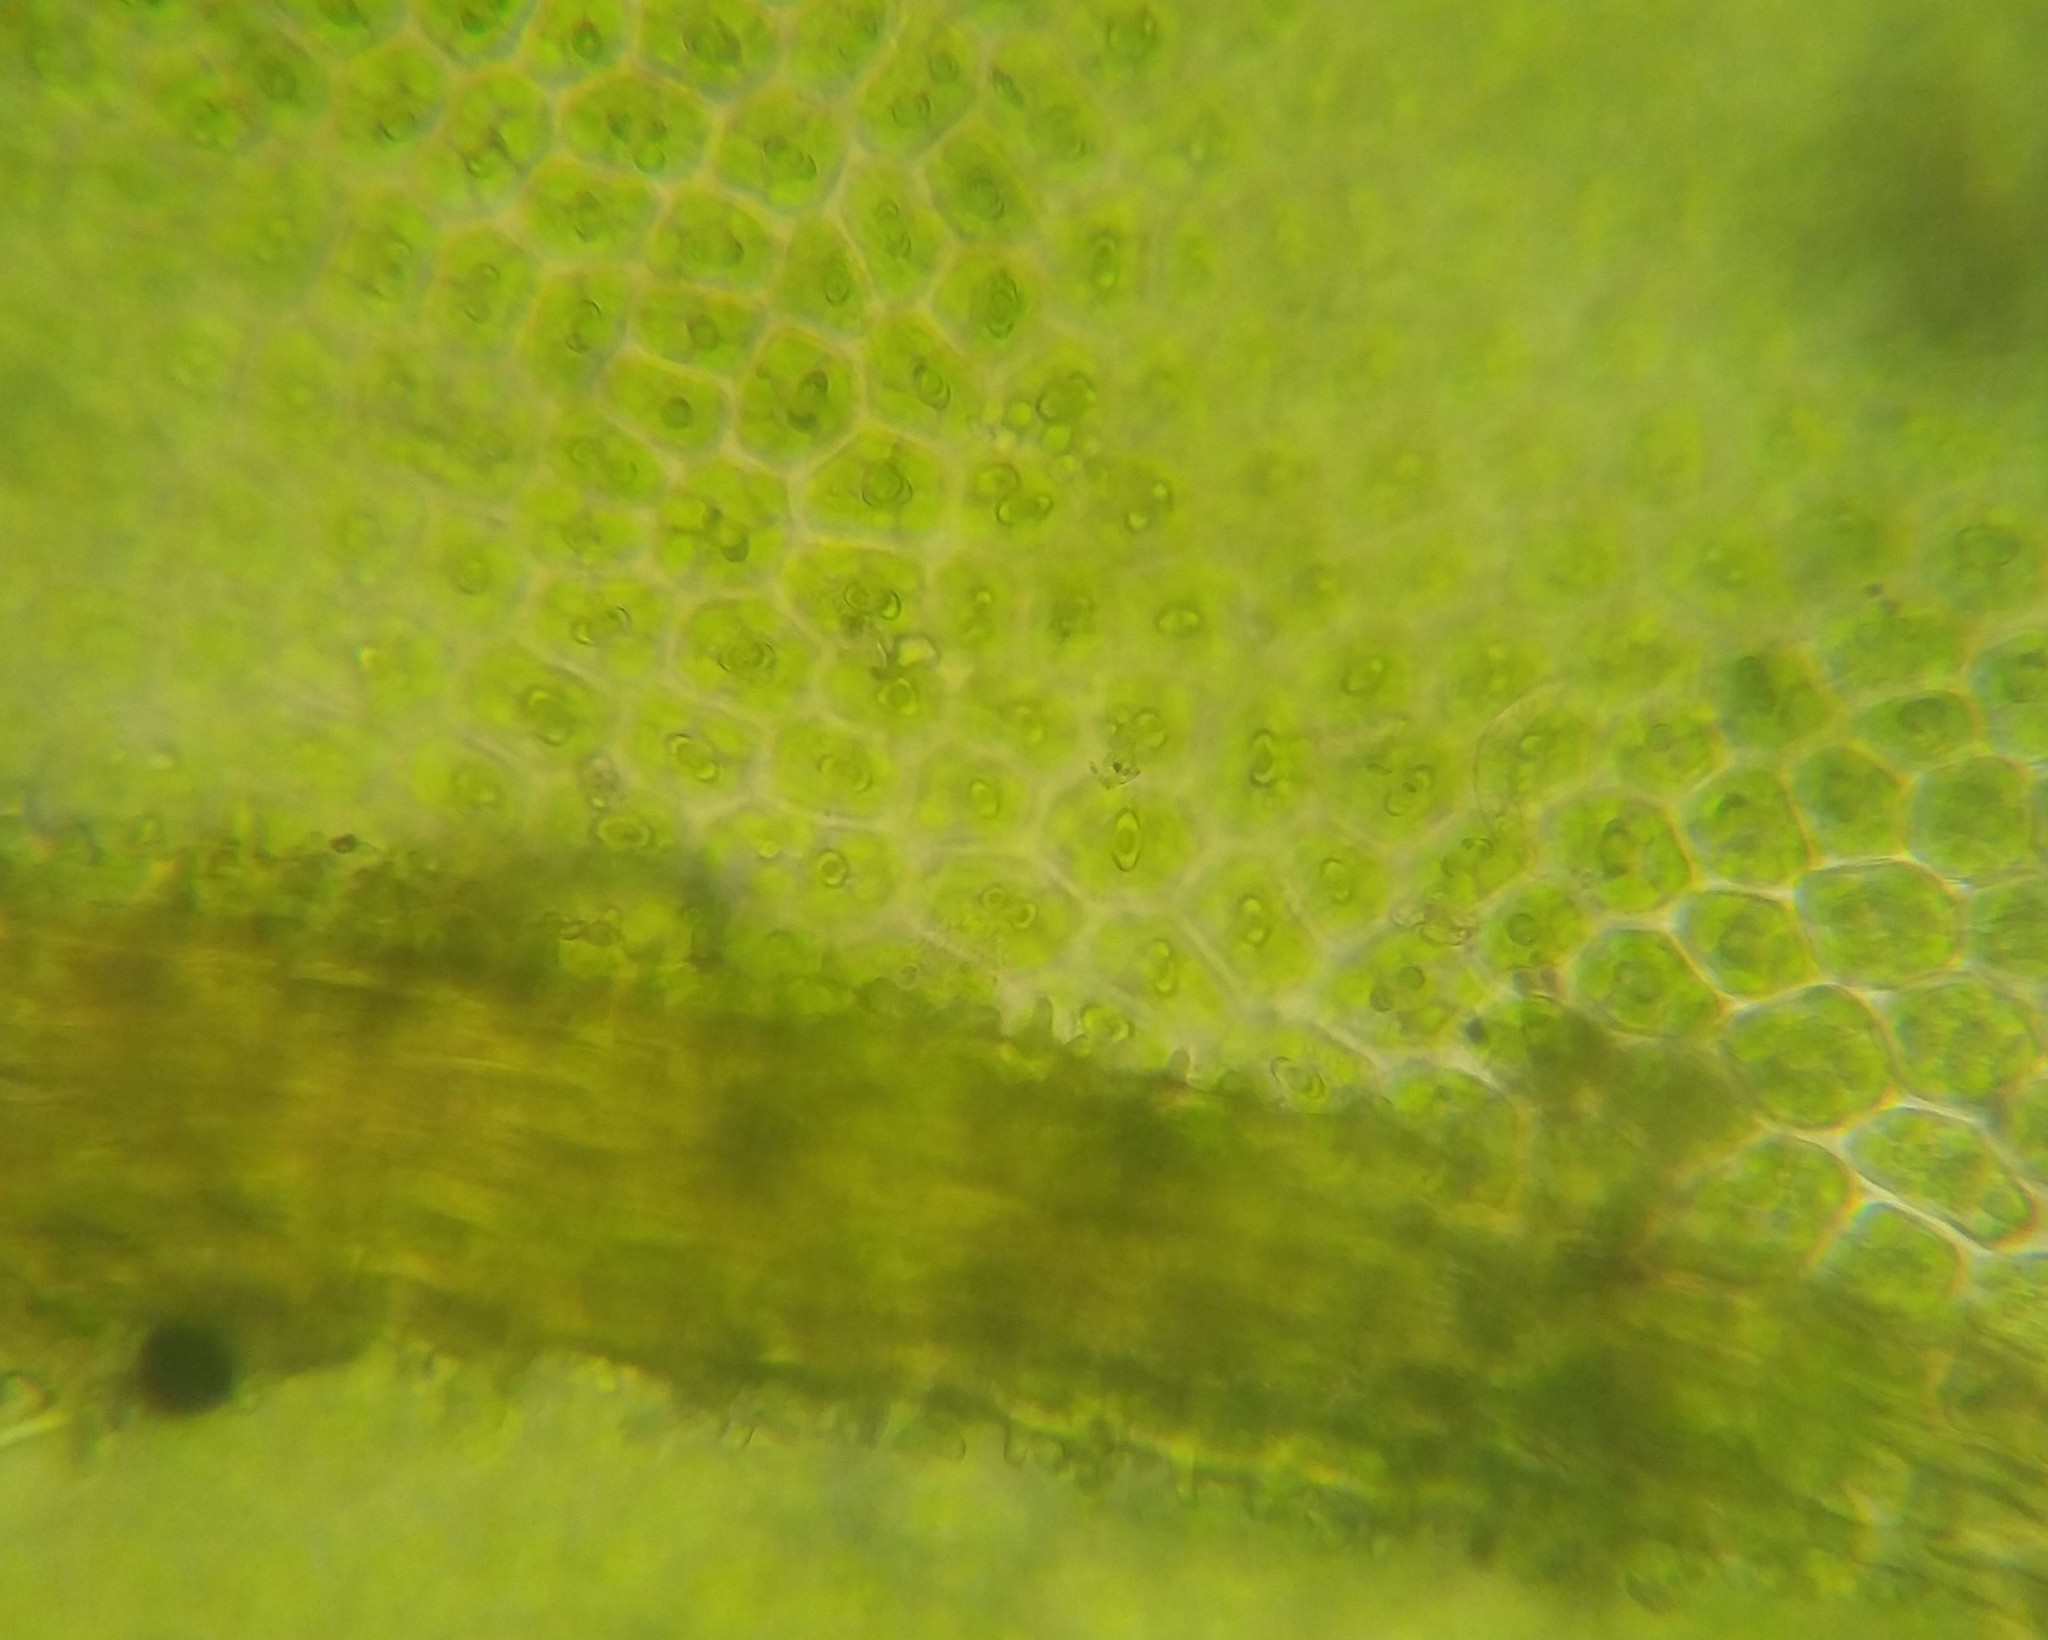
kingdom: Plantae
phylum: Bryophyta
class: Bryopsida
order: Pottiales
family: Pottiaceae
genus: Syntrichia
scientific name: Syntrichia papillosa
